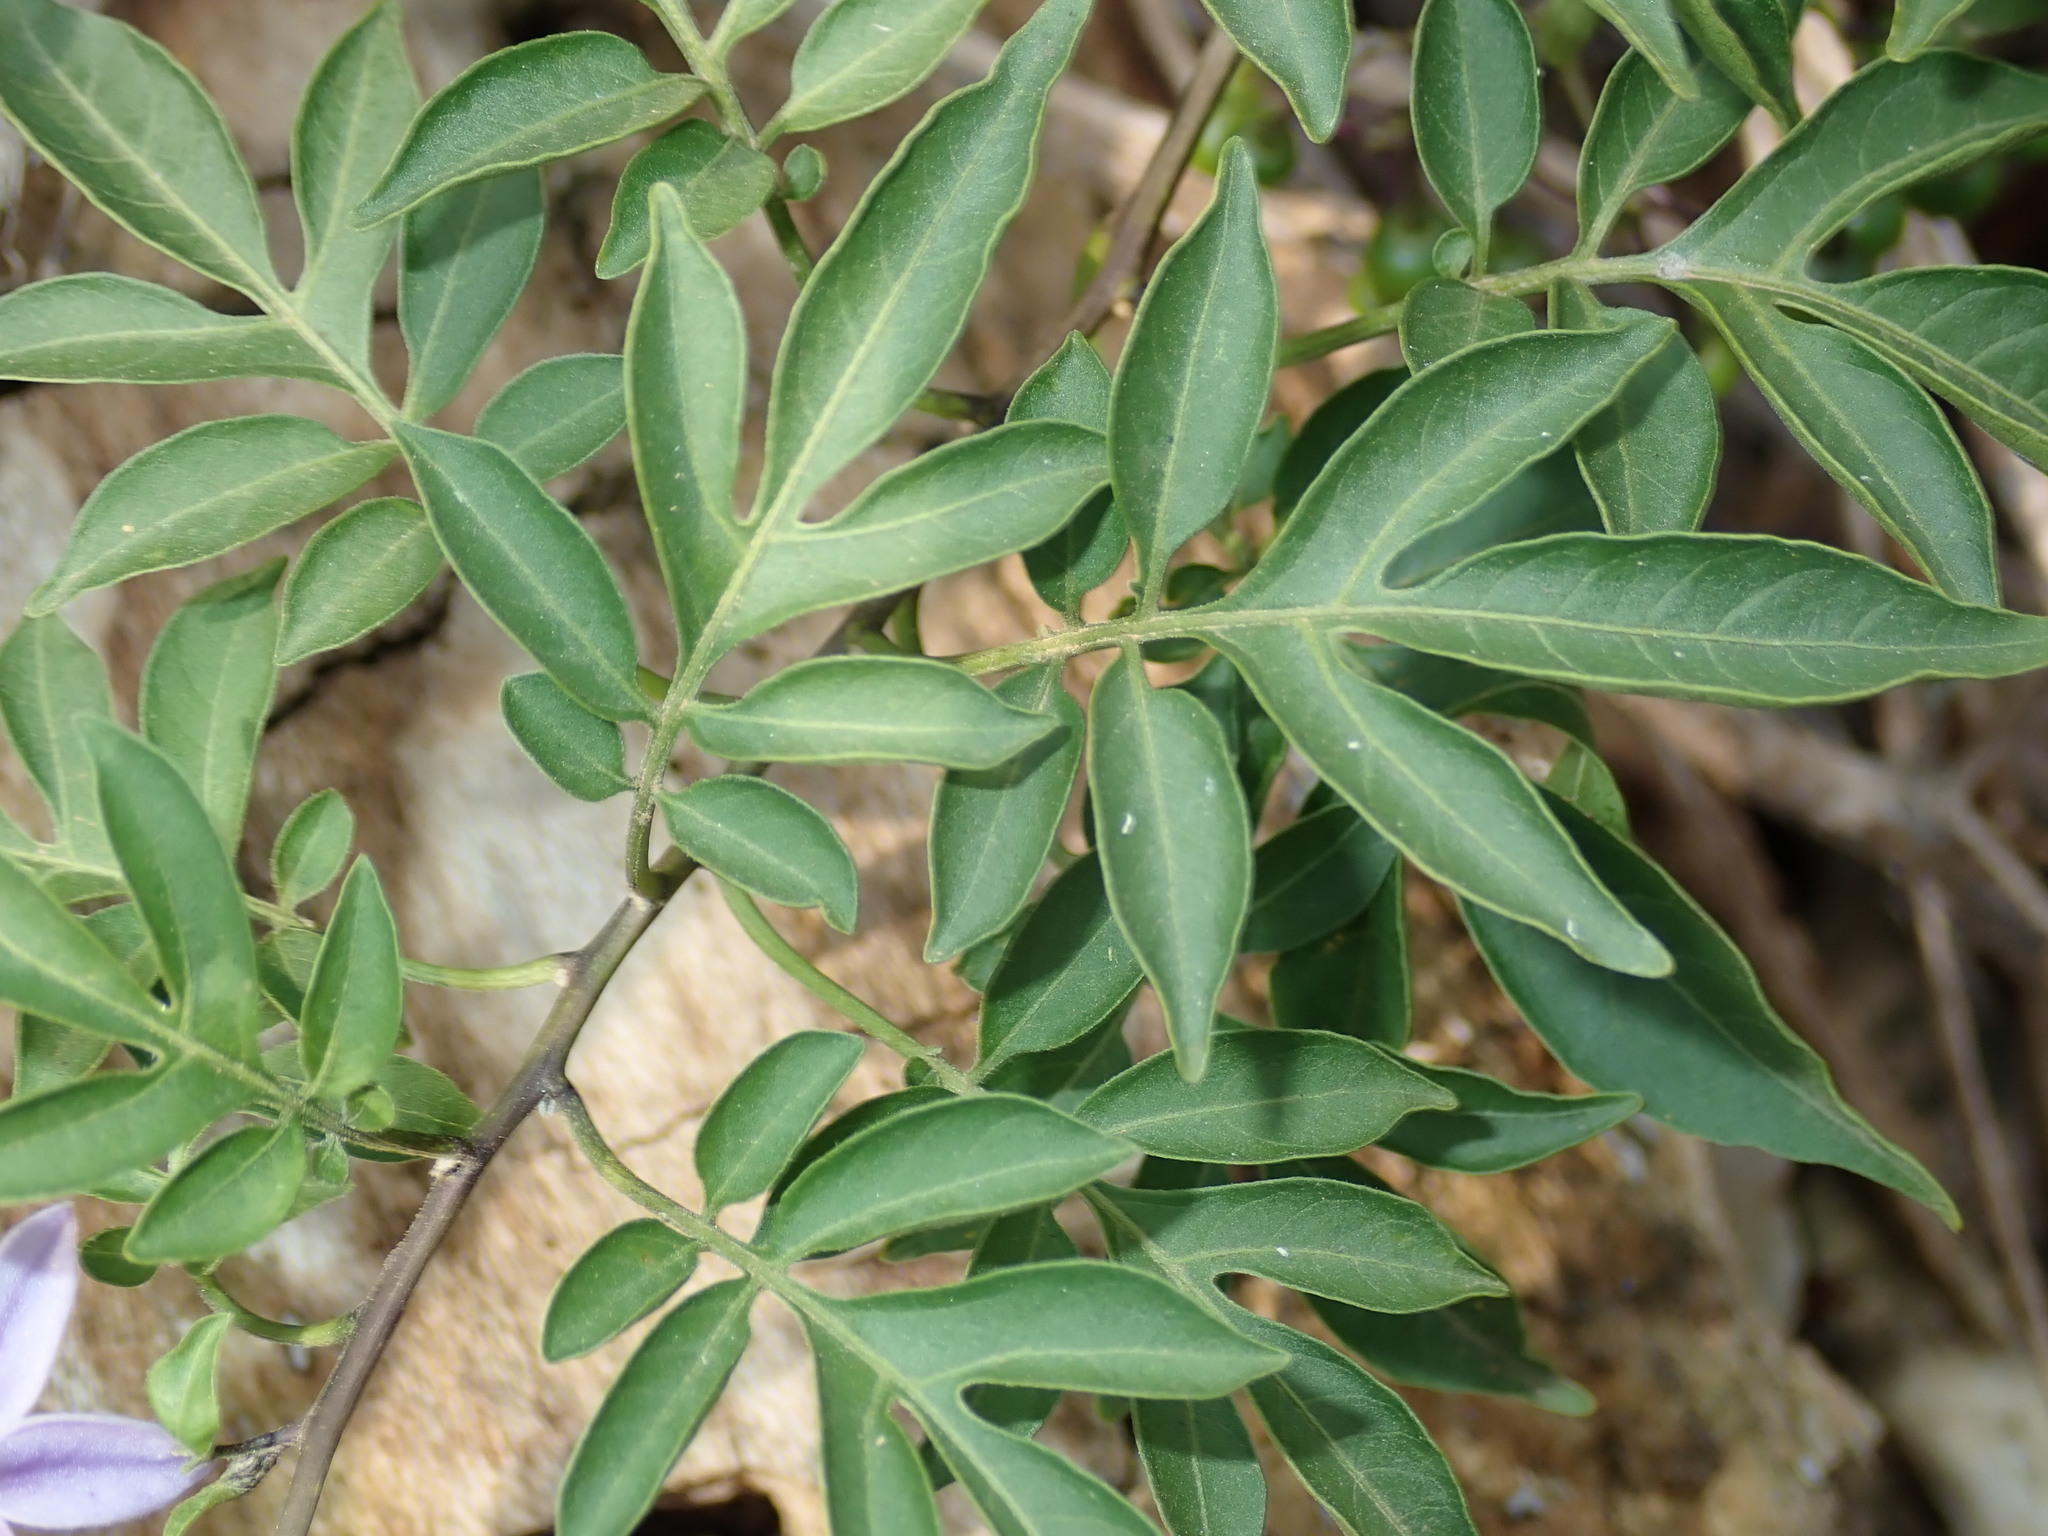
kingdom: Plantae
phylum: Tracheophyta
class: Magnoliopsida
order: Solanales
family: Solanaceae
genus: Solanum
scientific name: Solanum seaforthianum
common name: Brazilian nightshade
